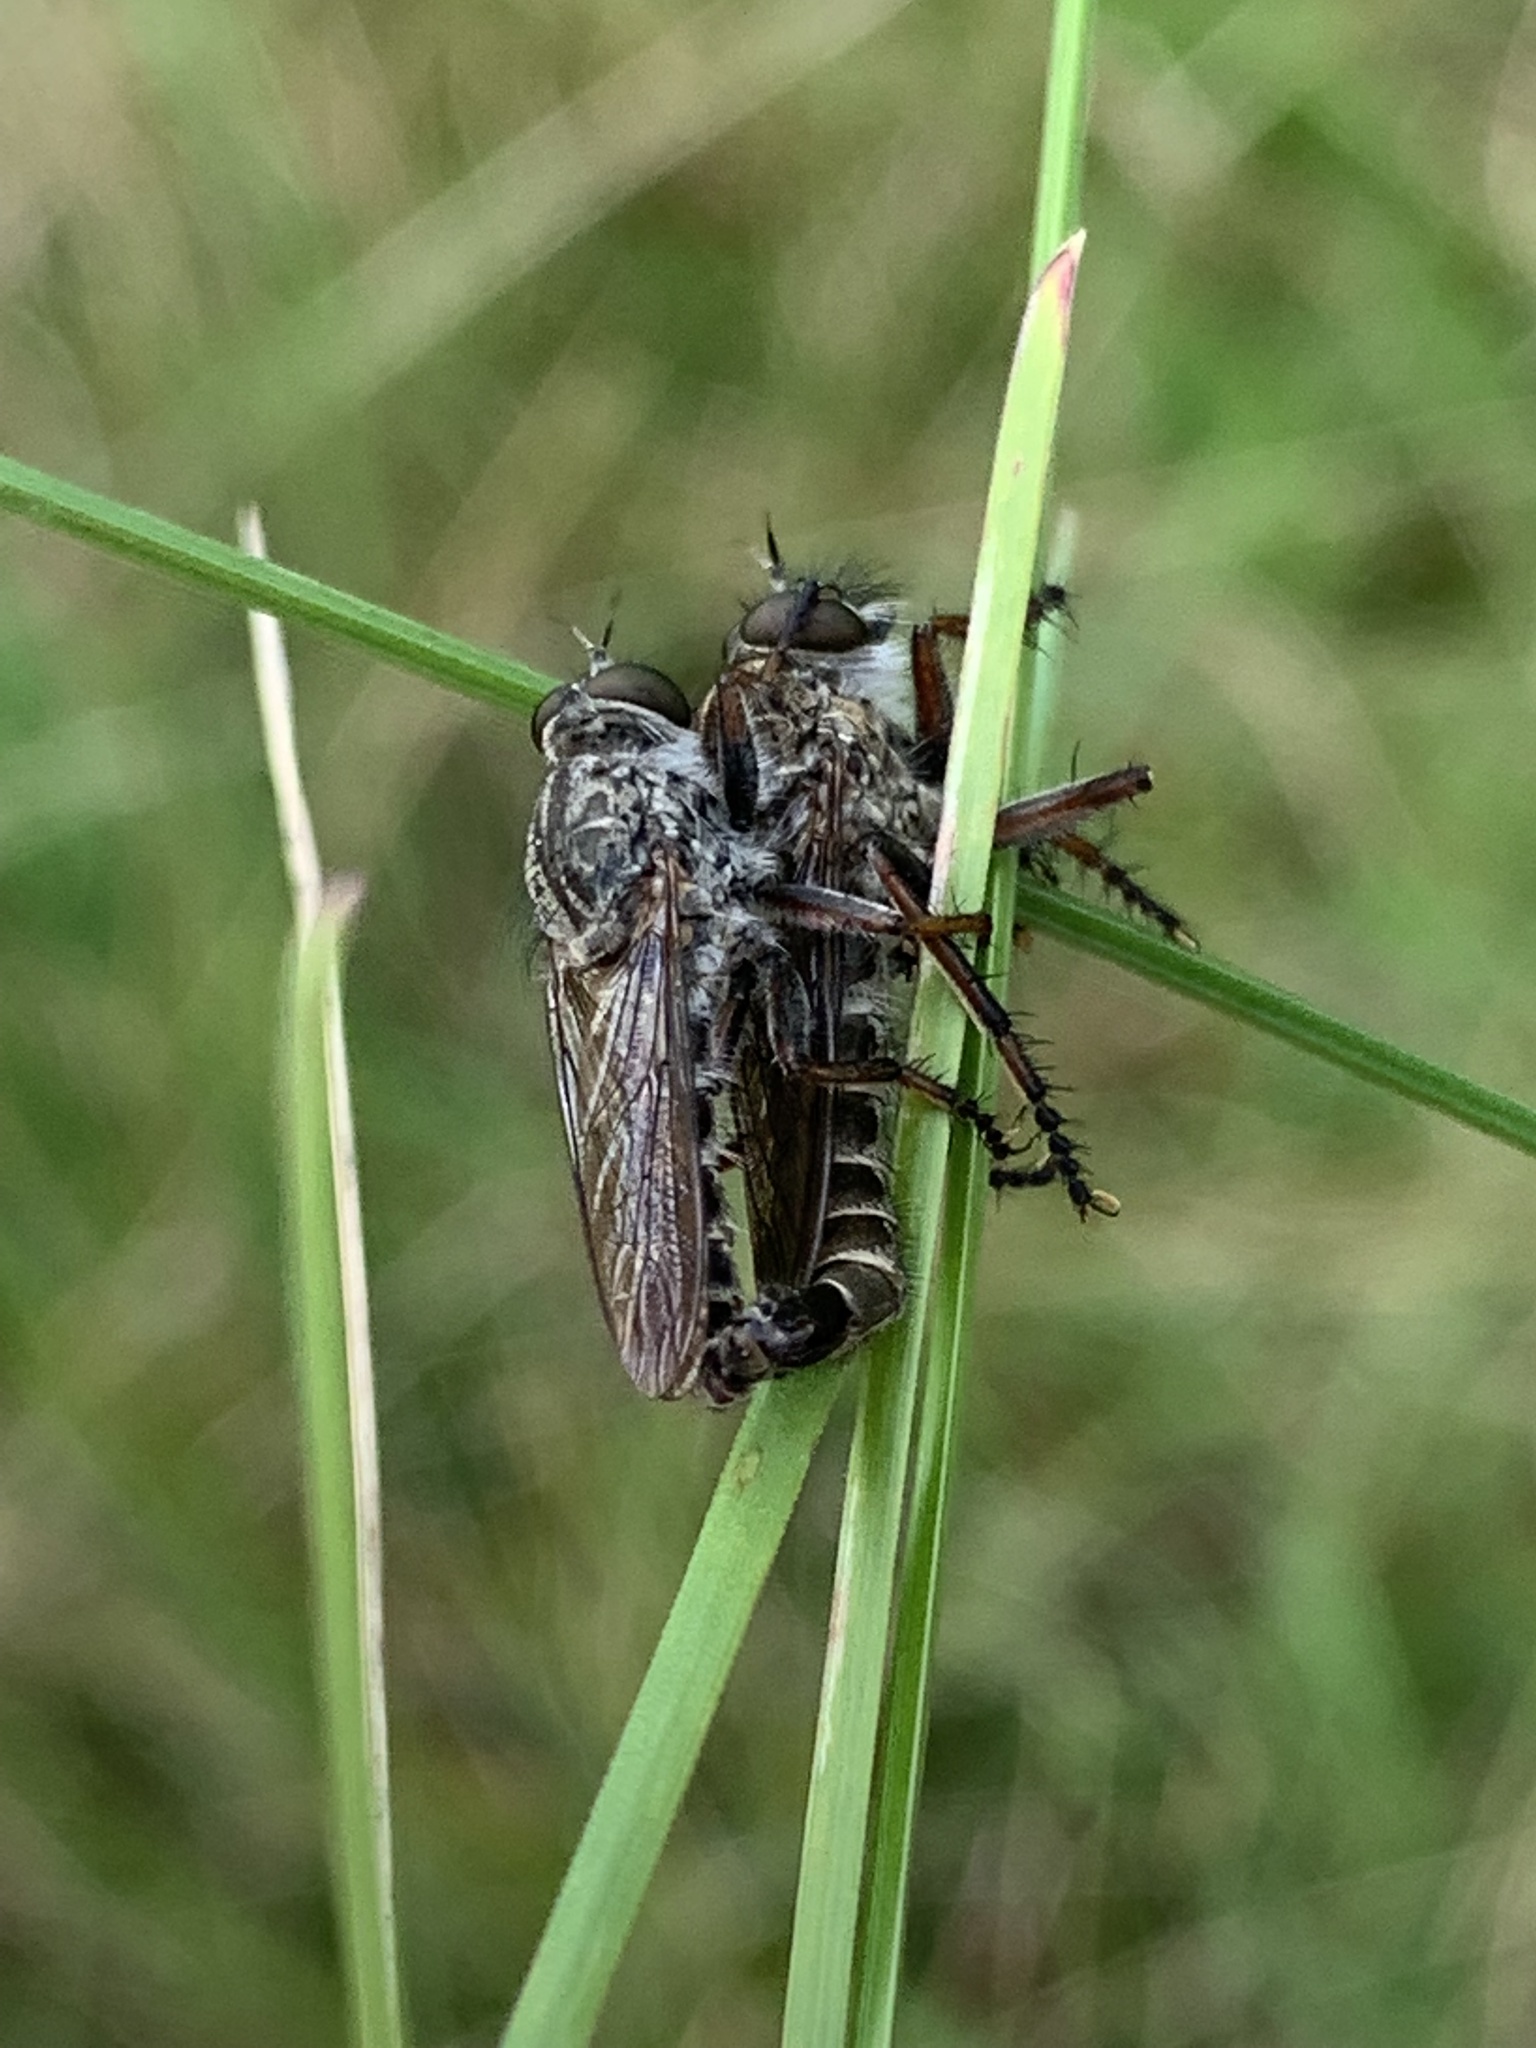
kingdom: Animalia
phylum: Arthropoda
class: Insecta
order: Diptera
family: Asilidae
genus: Machimus
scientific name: Machimus atricapillus
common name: Kite-tailed robberfly
